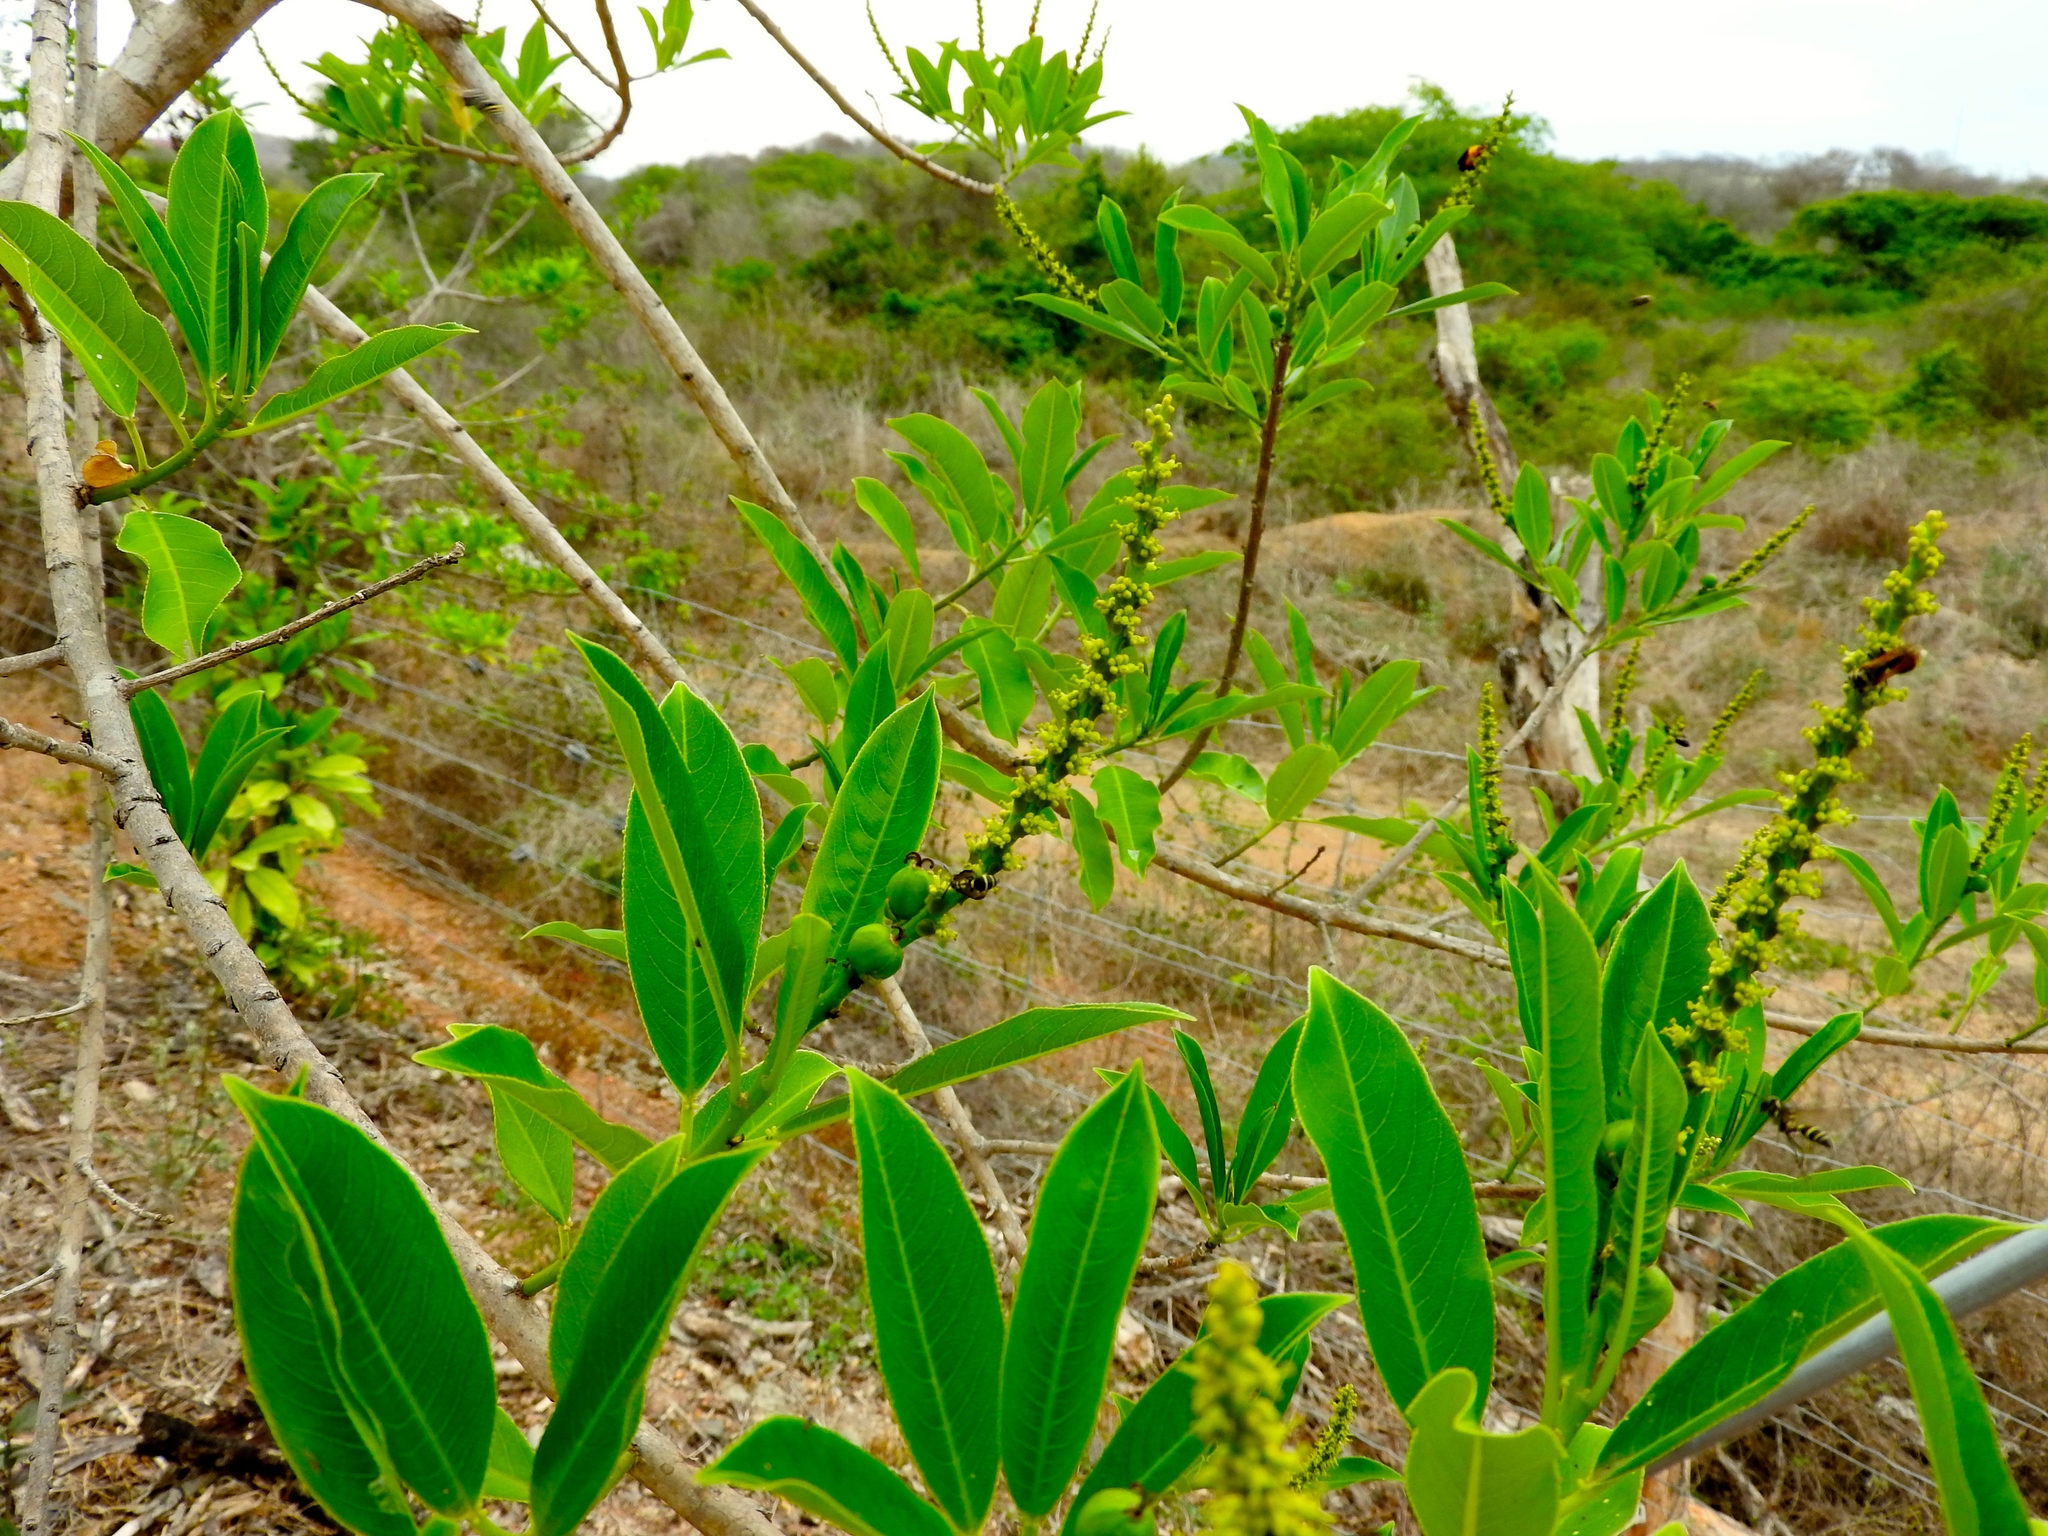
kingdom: Plantae
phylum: Tracheophyta
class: Magnoliopsida
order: Malpighiales
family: Euphorbiaceae
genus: Sapium
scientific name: Sapium lateriflorum
